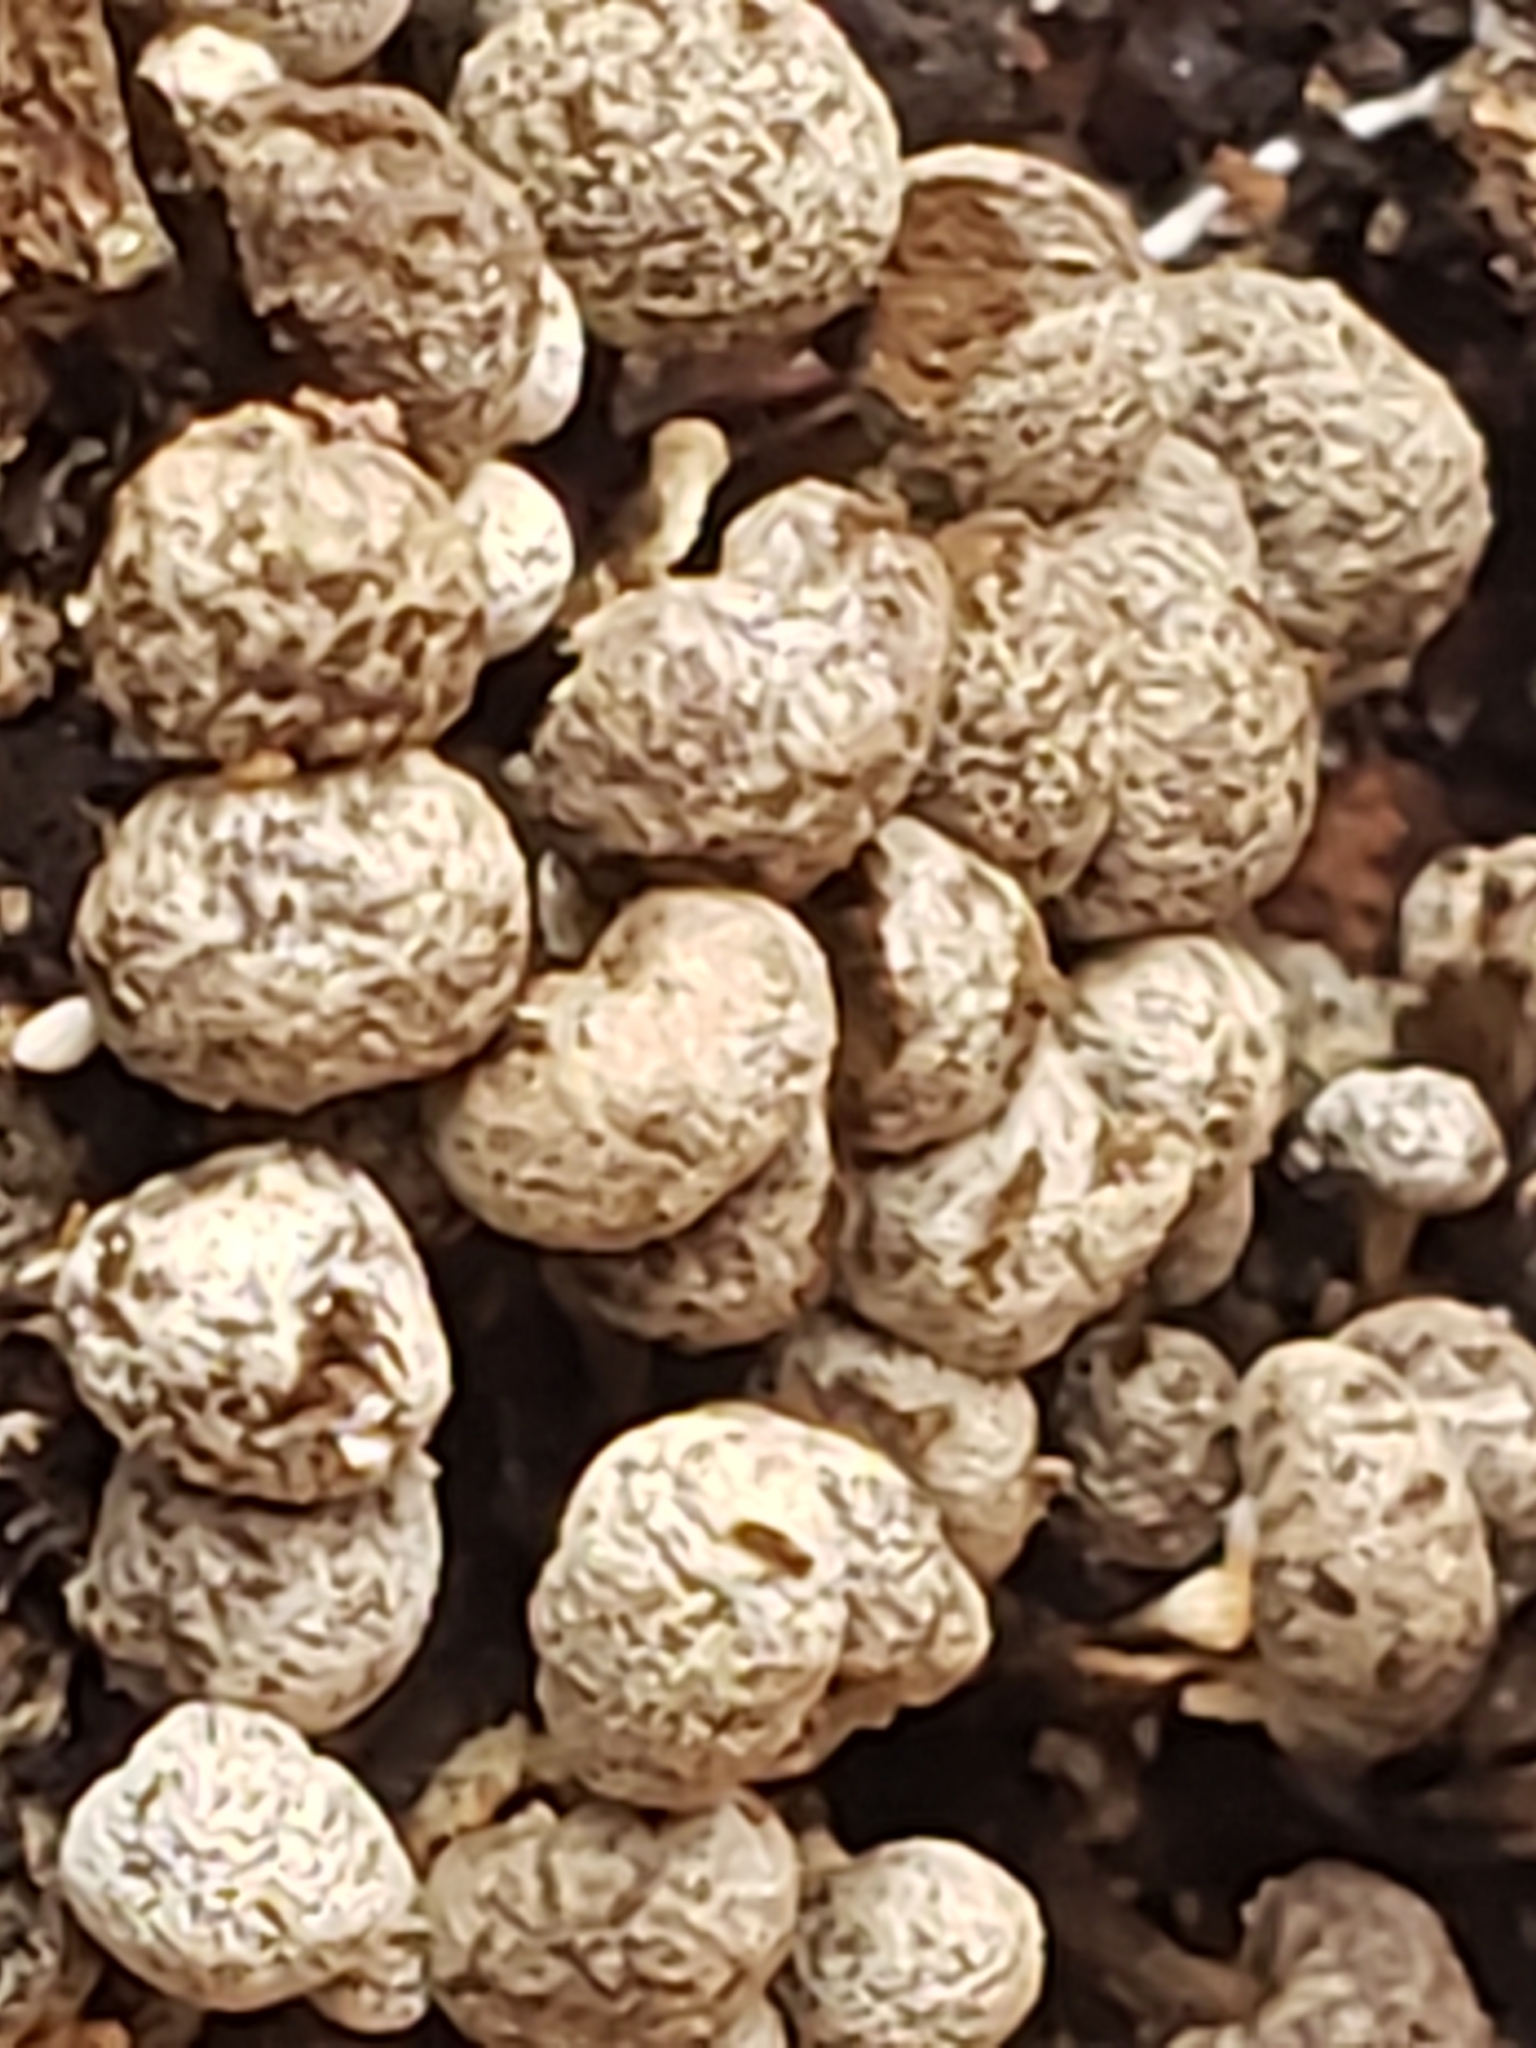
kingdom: Fungi
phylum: Basidiomycota
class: Atractiellomycetes
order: Atractiellales
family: Phleogenaceae
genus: Phleogena
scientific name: Phleogena faginea
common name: Fenugreek stalkball
